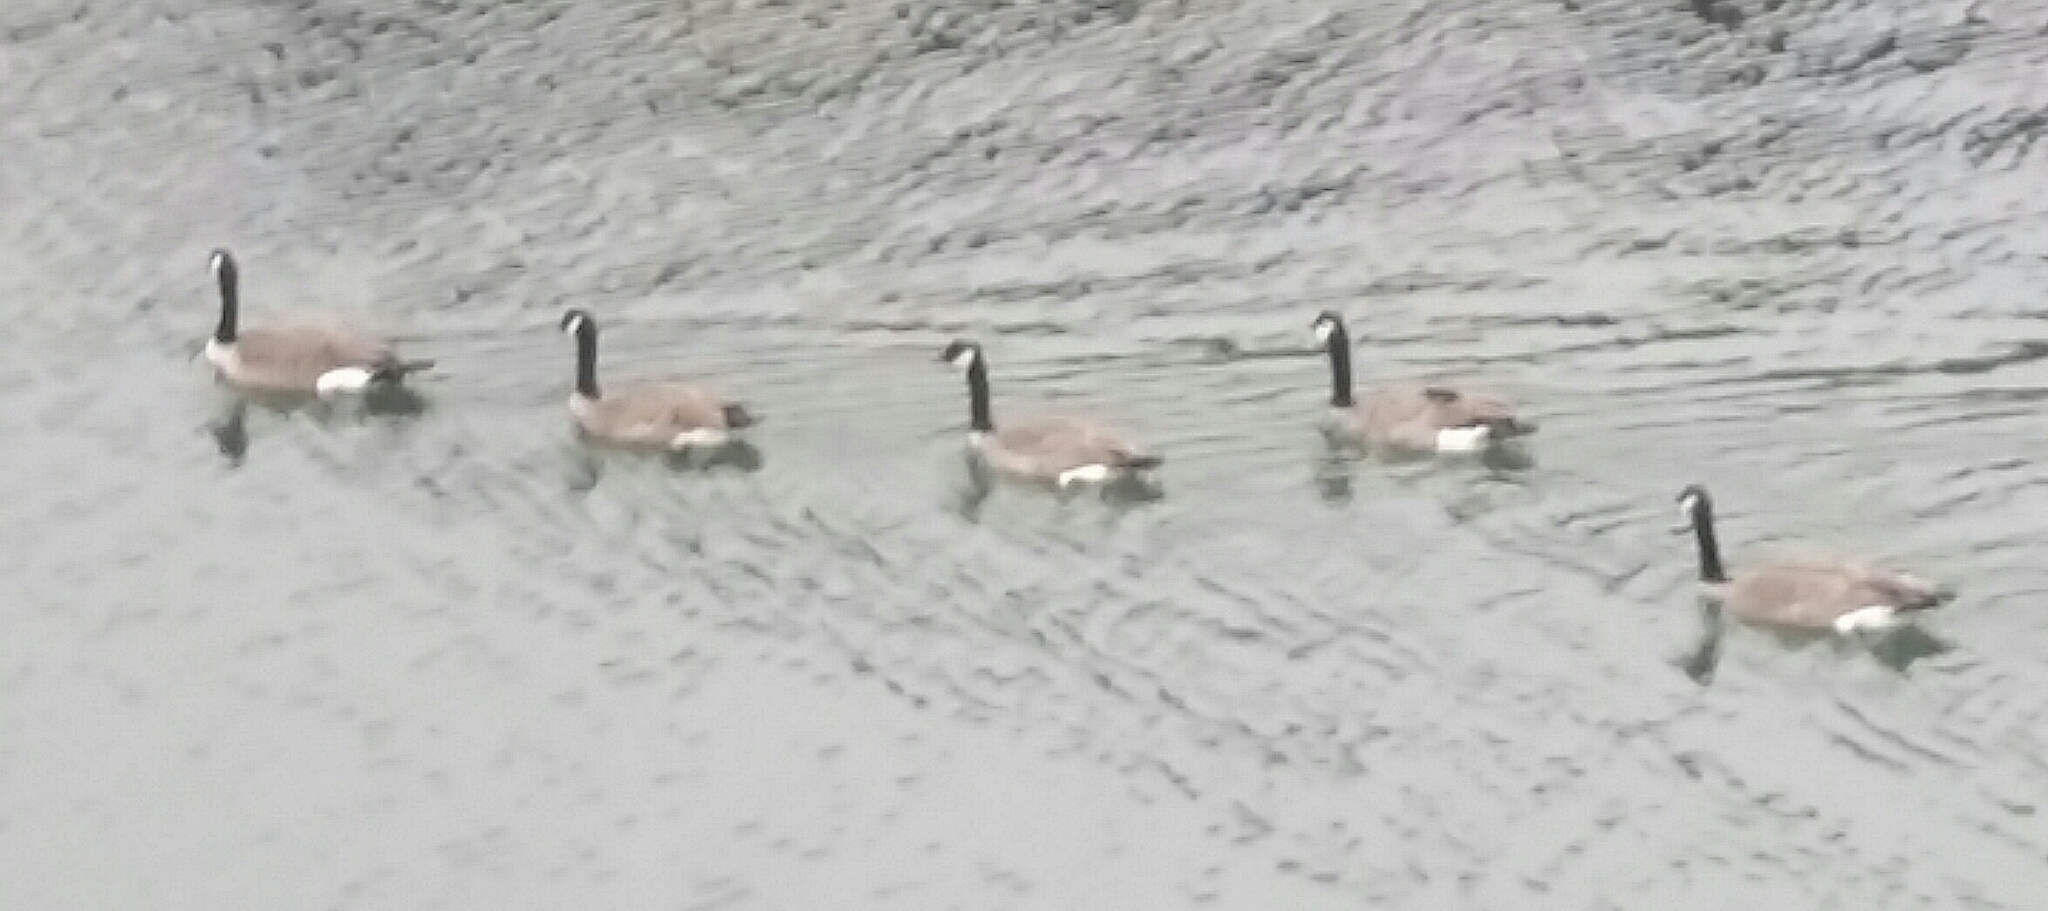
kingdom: Animalia
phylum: Chordata
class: Aves
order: Anseriformes
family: Anatidae
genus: Branta
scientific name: Branta canadensis
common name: Canada goose
